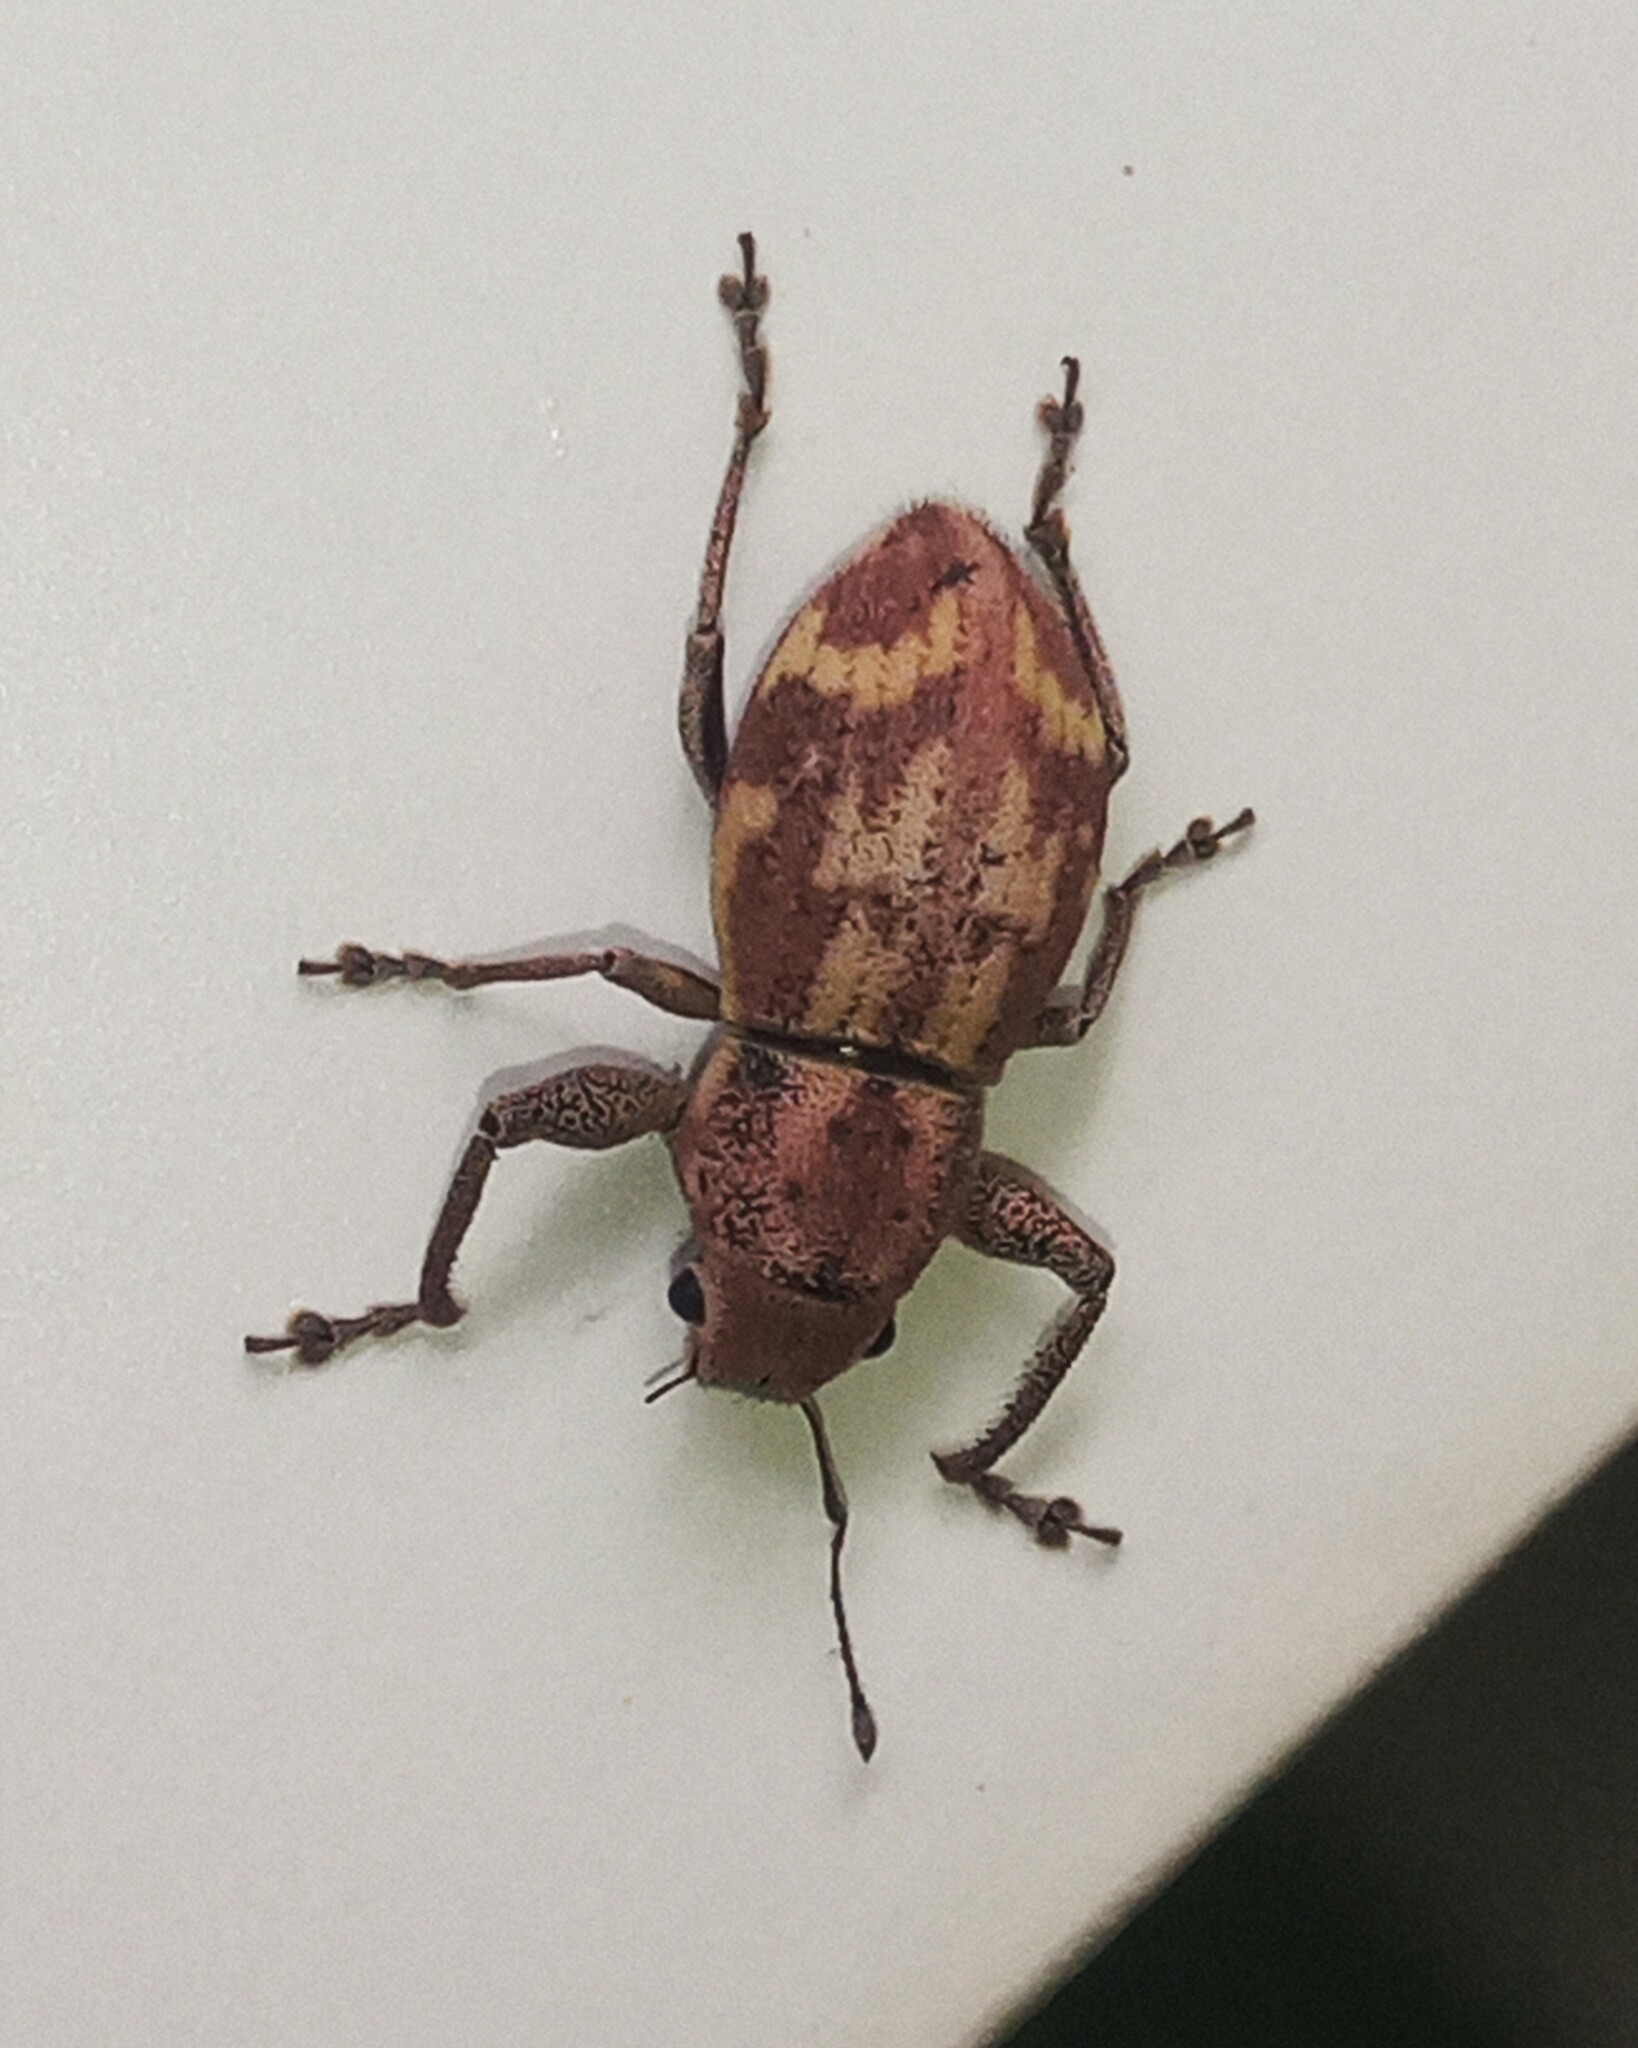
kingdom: Animalia
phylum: Arthropoda
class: Insecta
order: Coleoptera
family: Curculionidae
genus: Parapantomorus
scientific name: Parapantomorus fluctuosus
